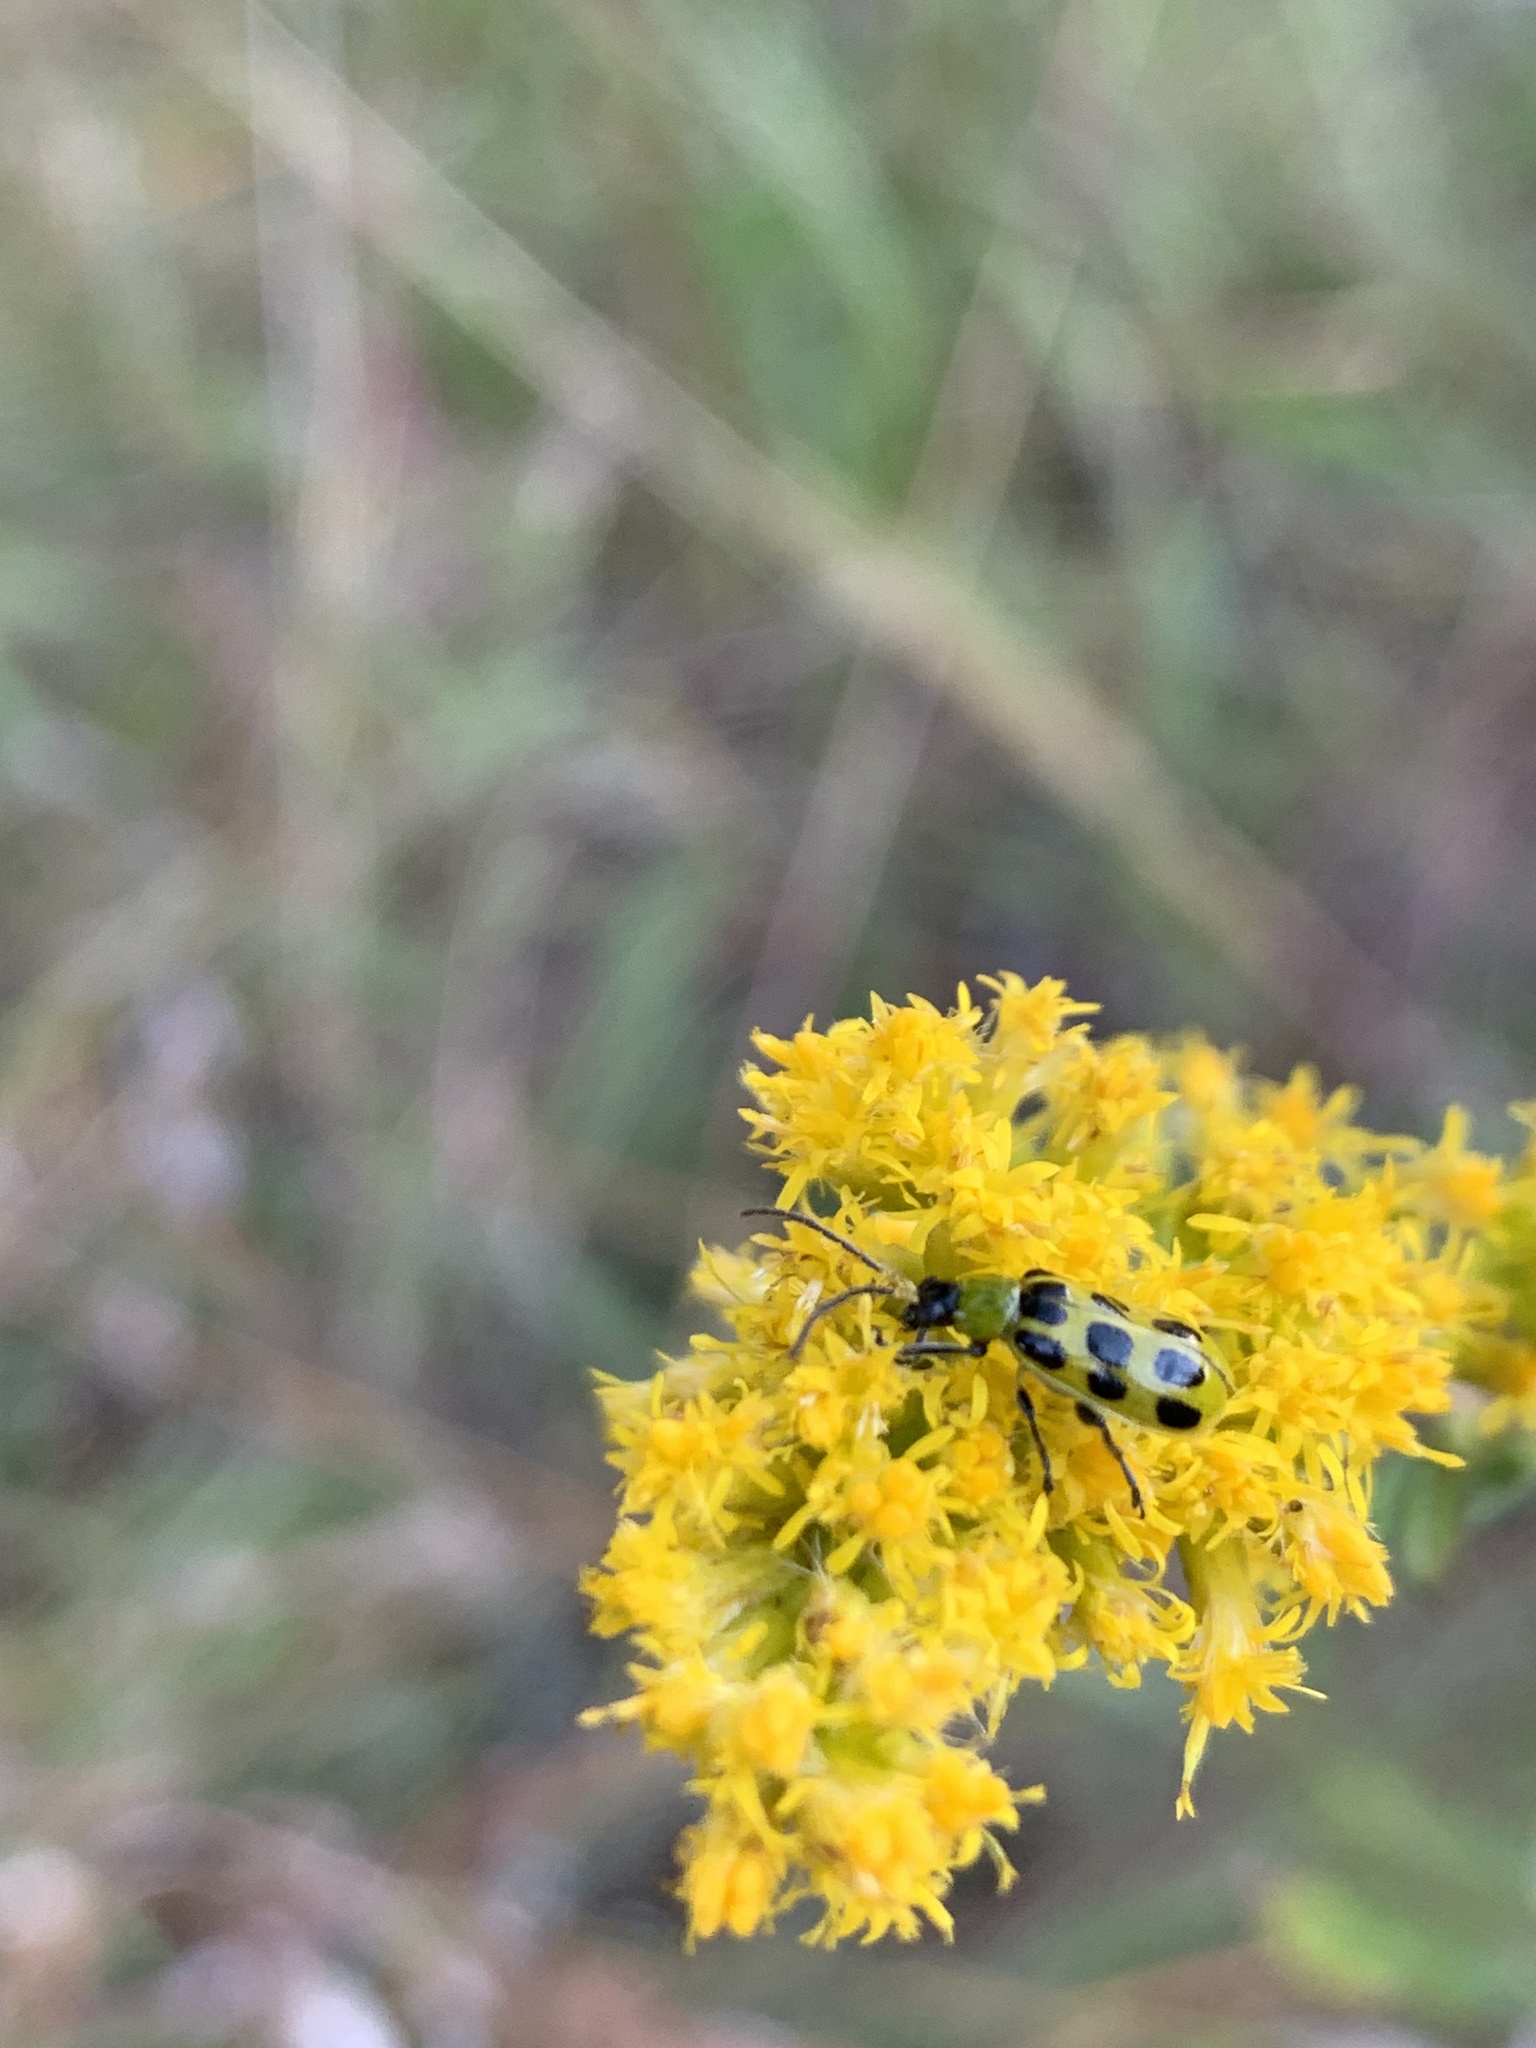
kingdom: Animalia
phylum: Arthropoda
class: Insecta
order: Coleoptera
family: Chrysomelidae
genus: Diabrotica
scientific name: Diabrotica undecimpunctata
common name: Spotted cucumber beetle
